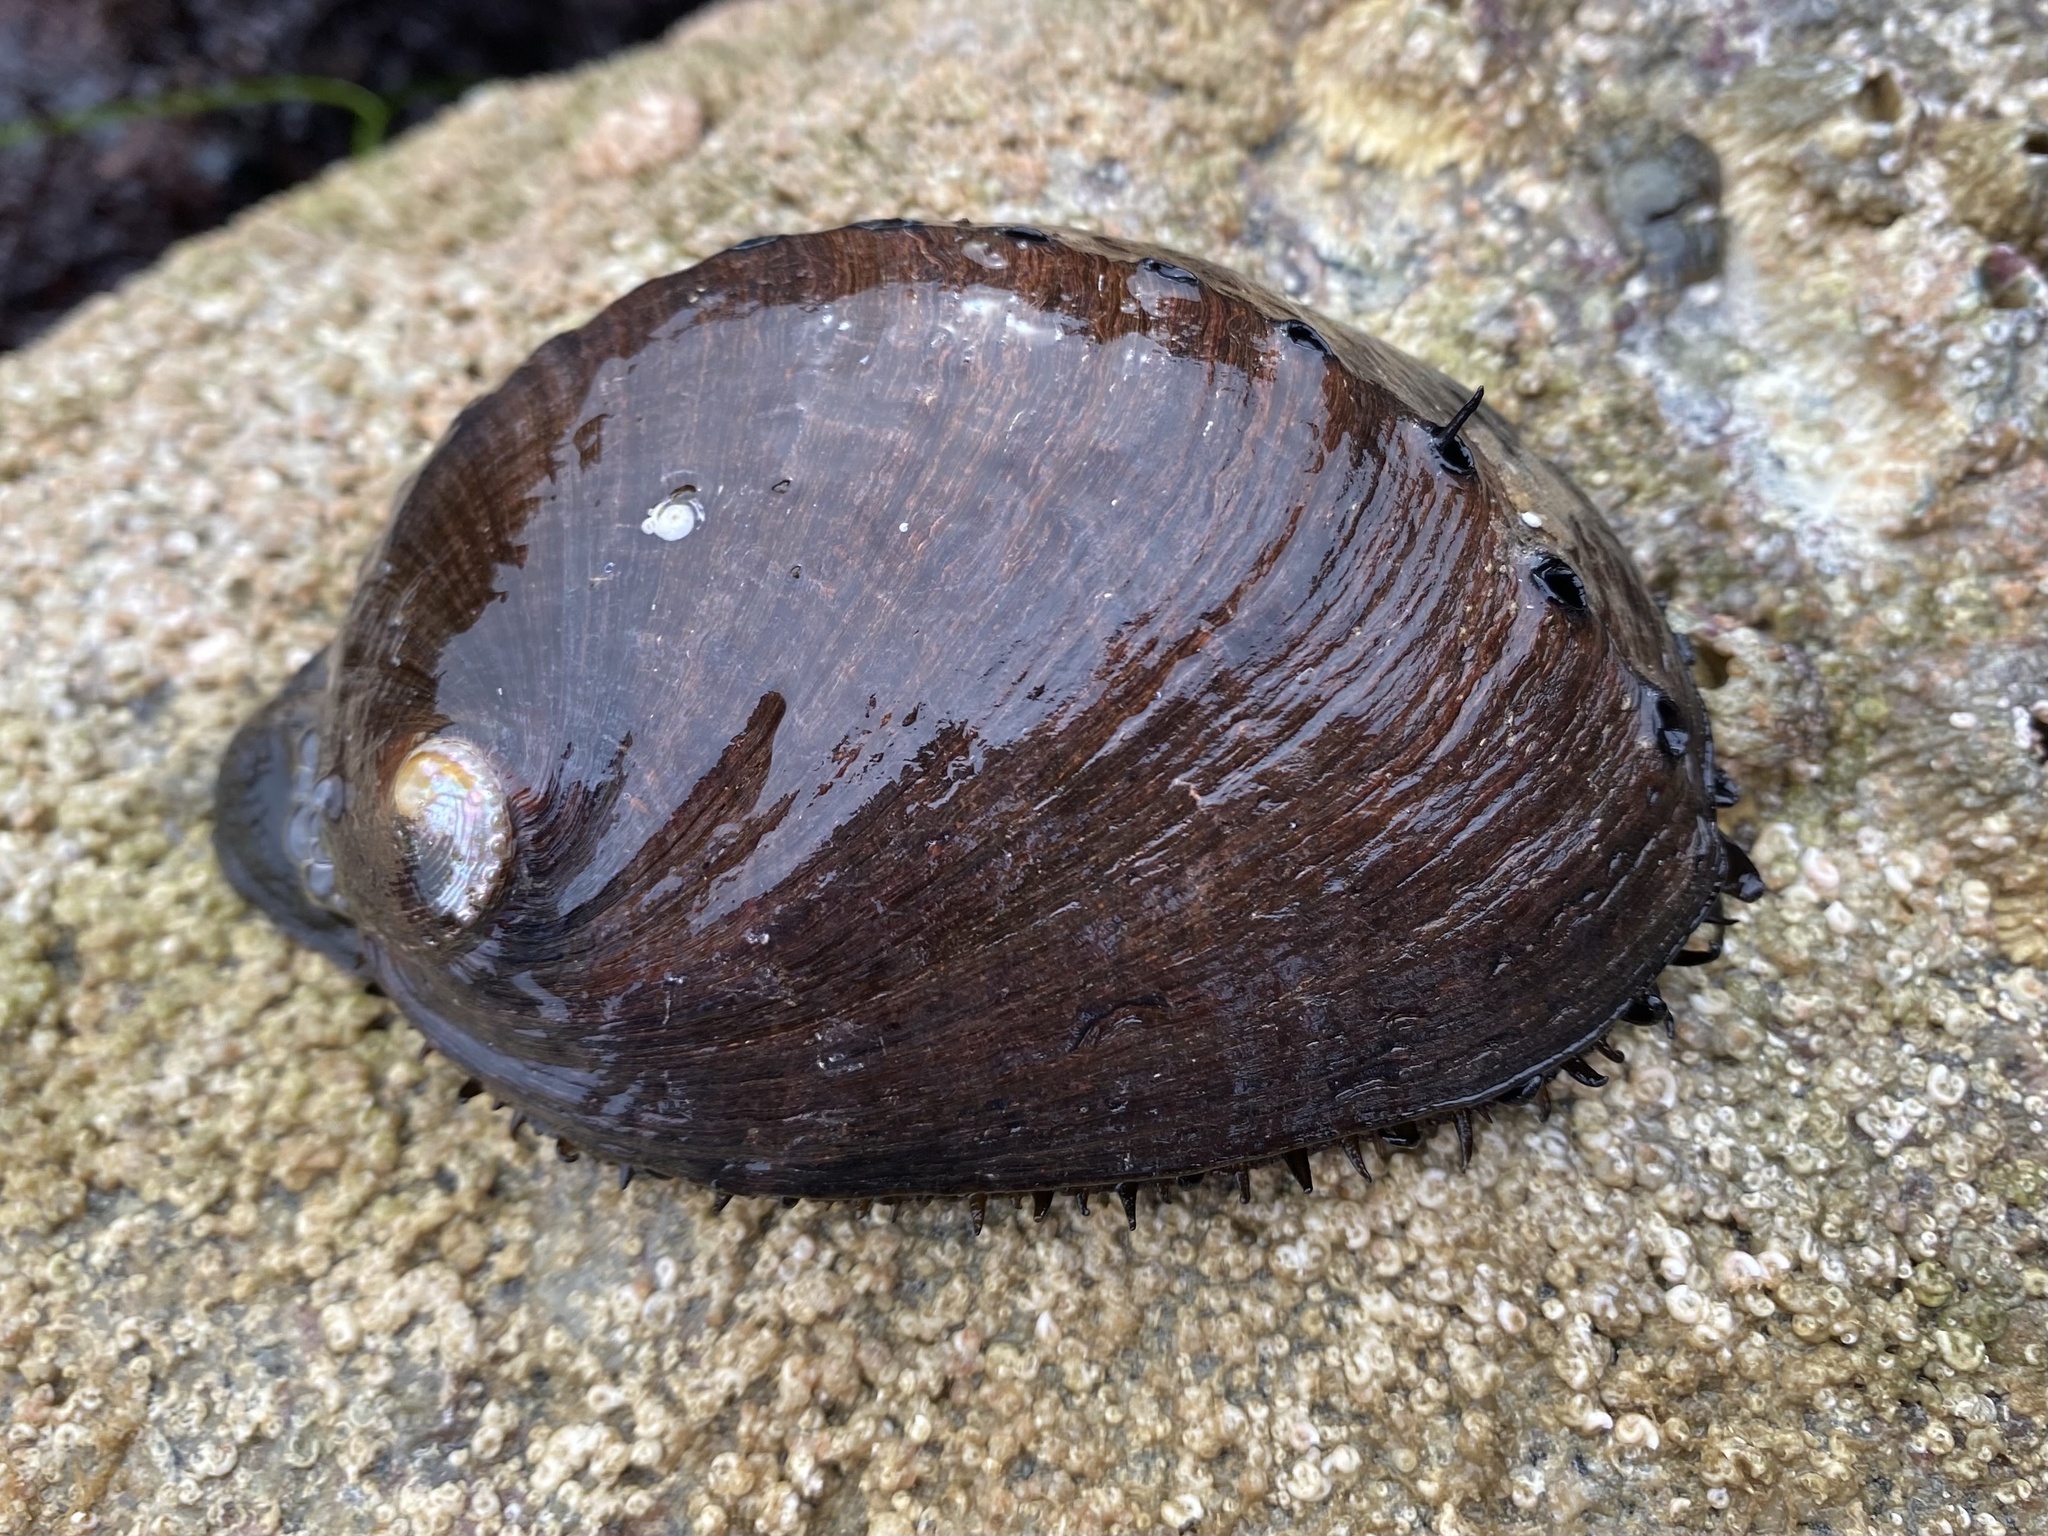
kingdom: Animalia
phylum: Mollusca
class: Gastropoda
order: Lepetellida
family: Haliotidae
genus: Haliotis
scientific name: Haliotis cracherodii
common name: Black abalone
